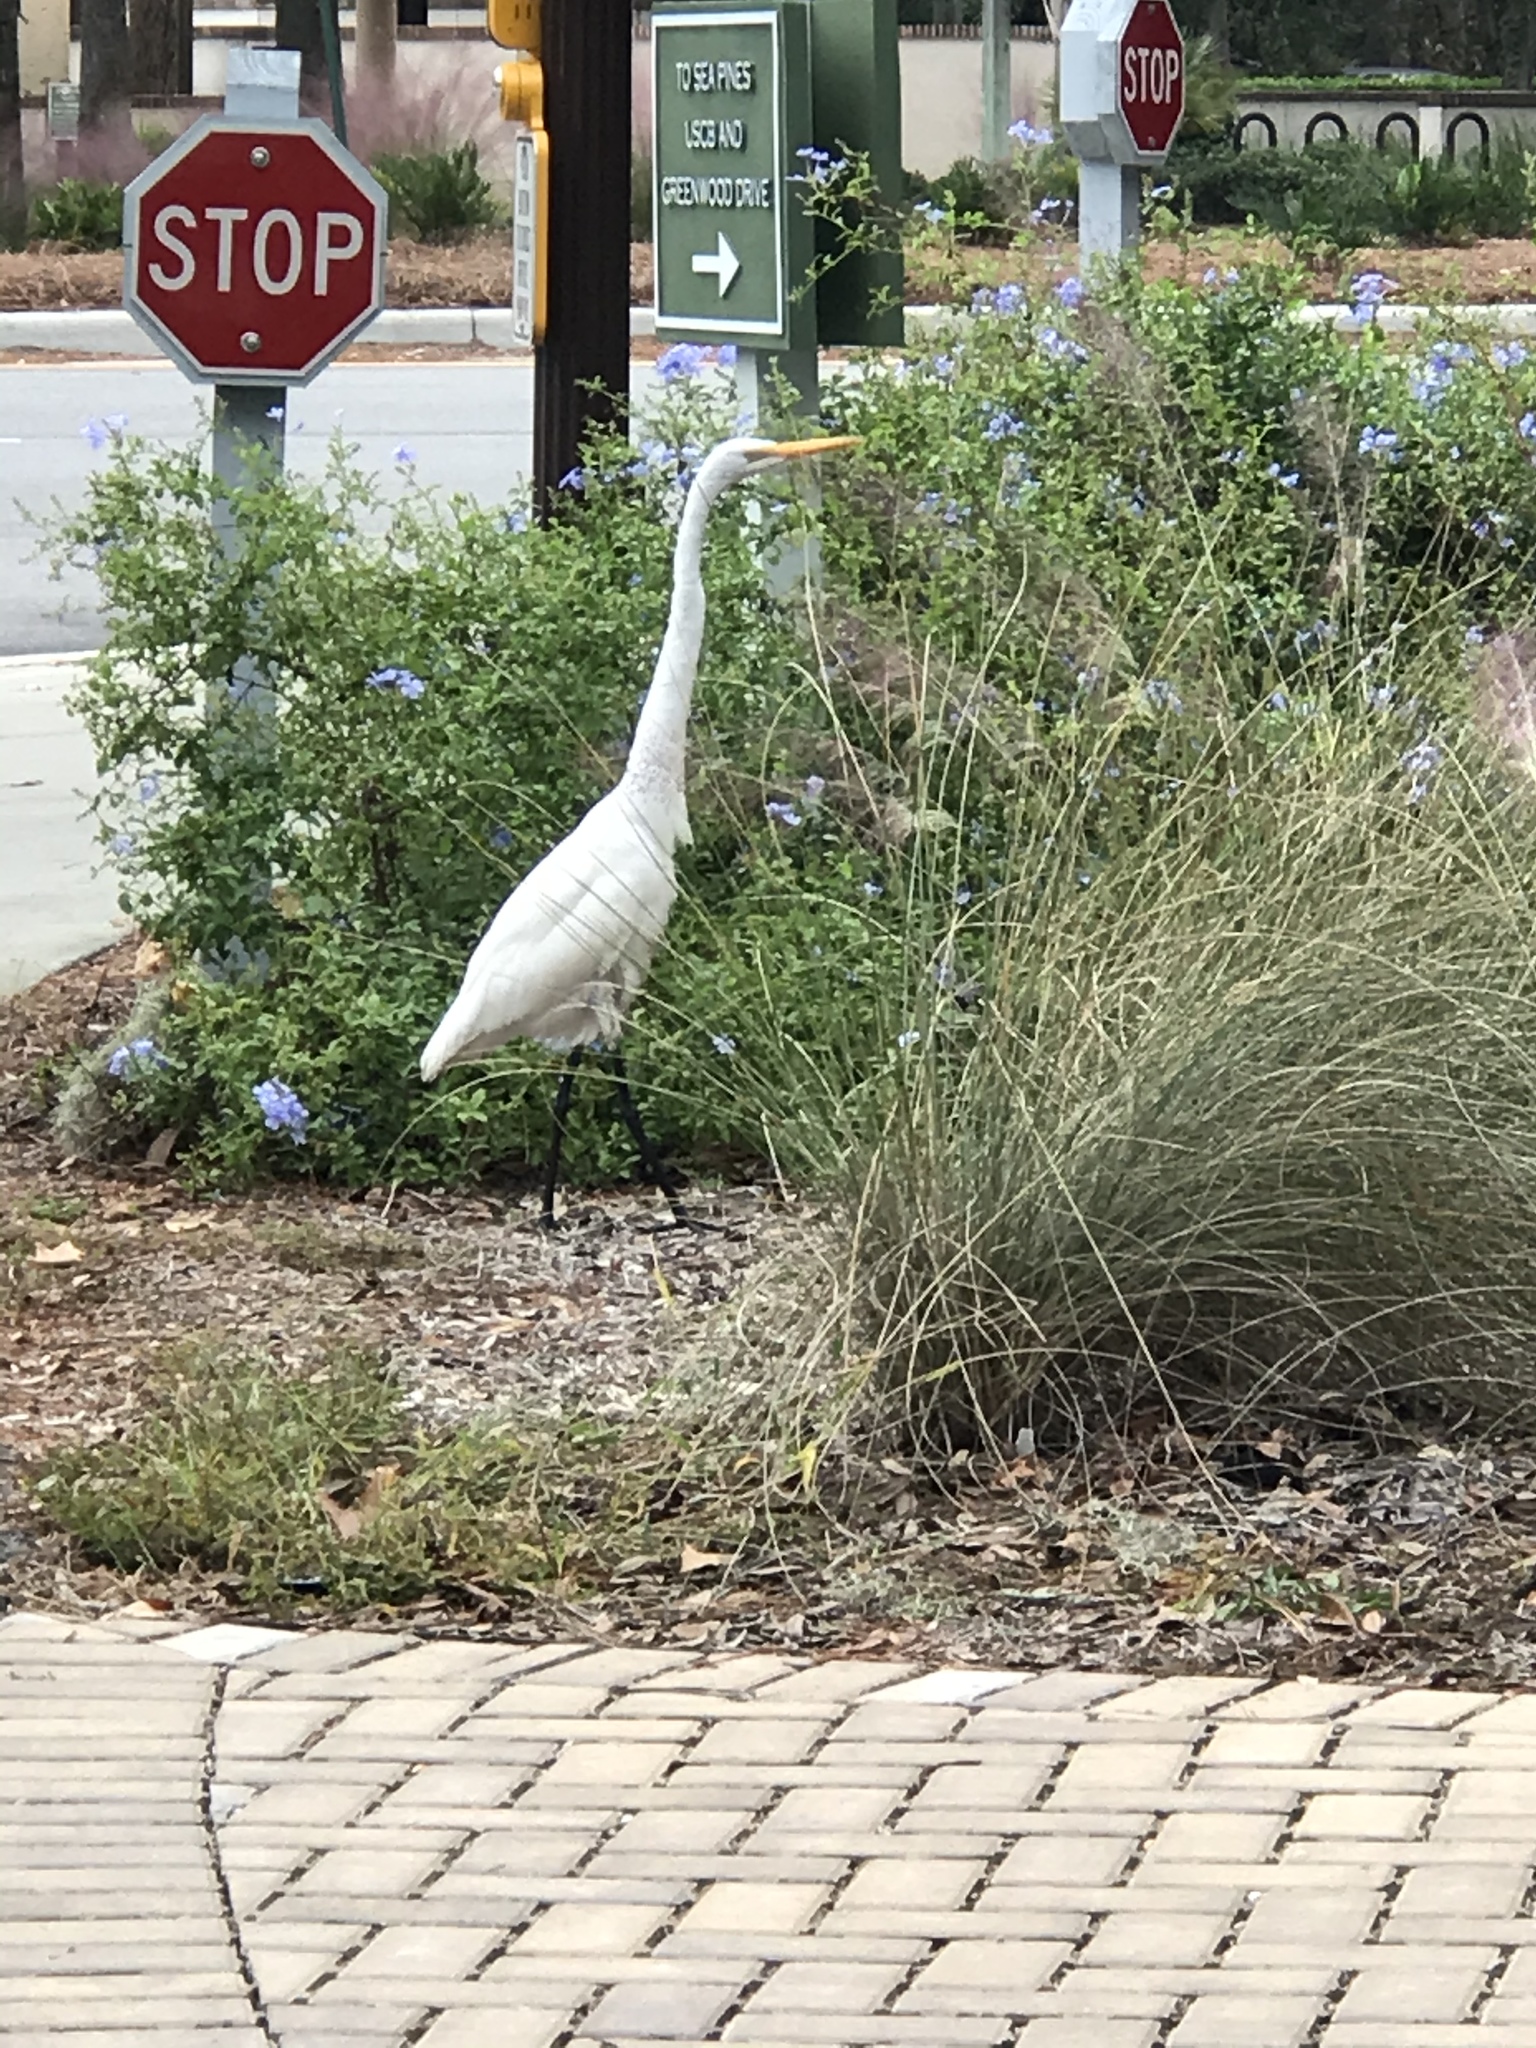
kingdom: Animalia
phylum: Chordata
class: Aves
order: Pelecaniformes
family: Ardeidae
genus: Ardea
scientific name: Ardea alba
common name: Great egret
